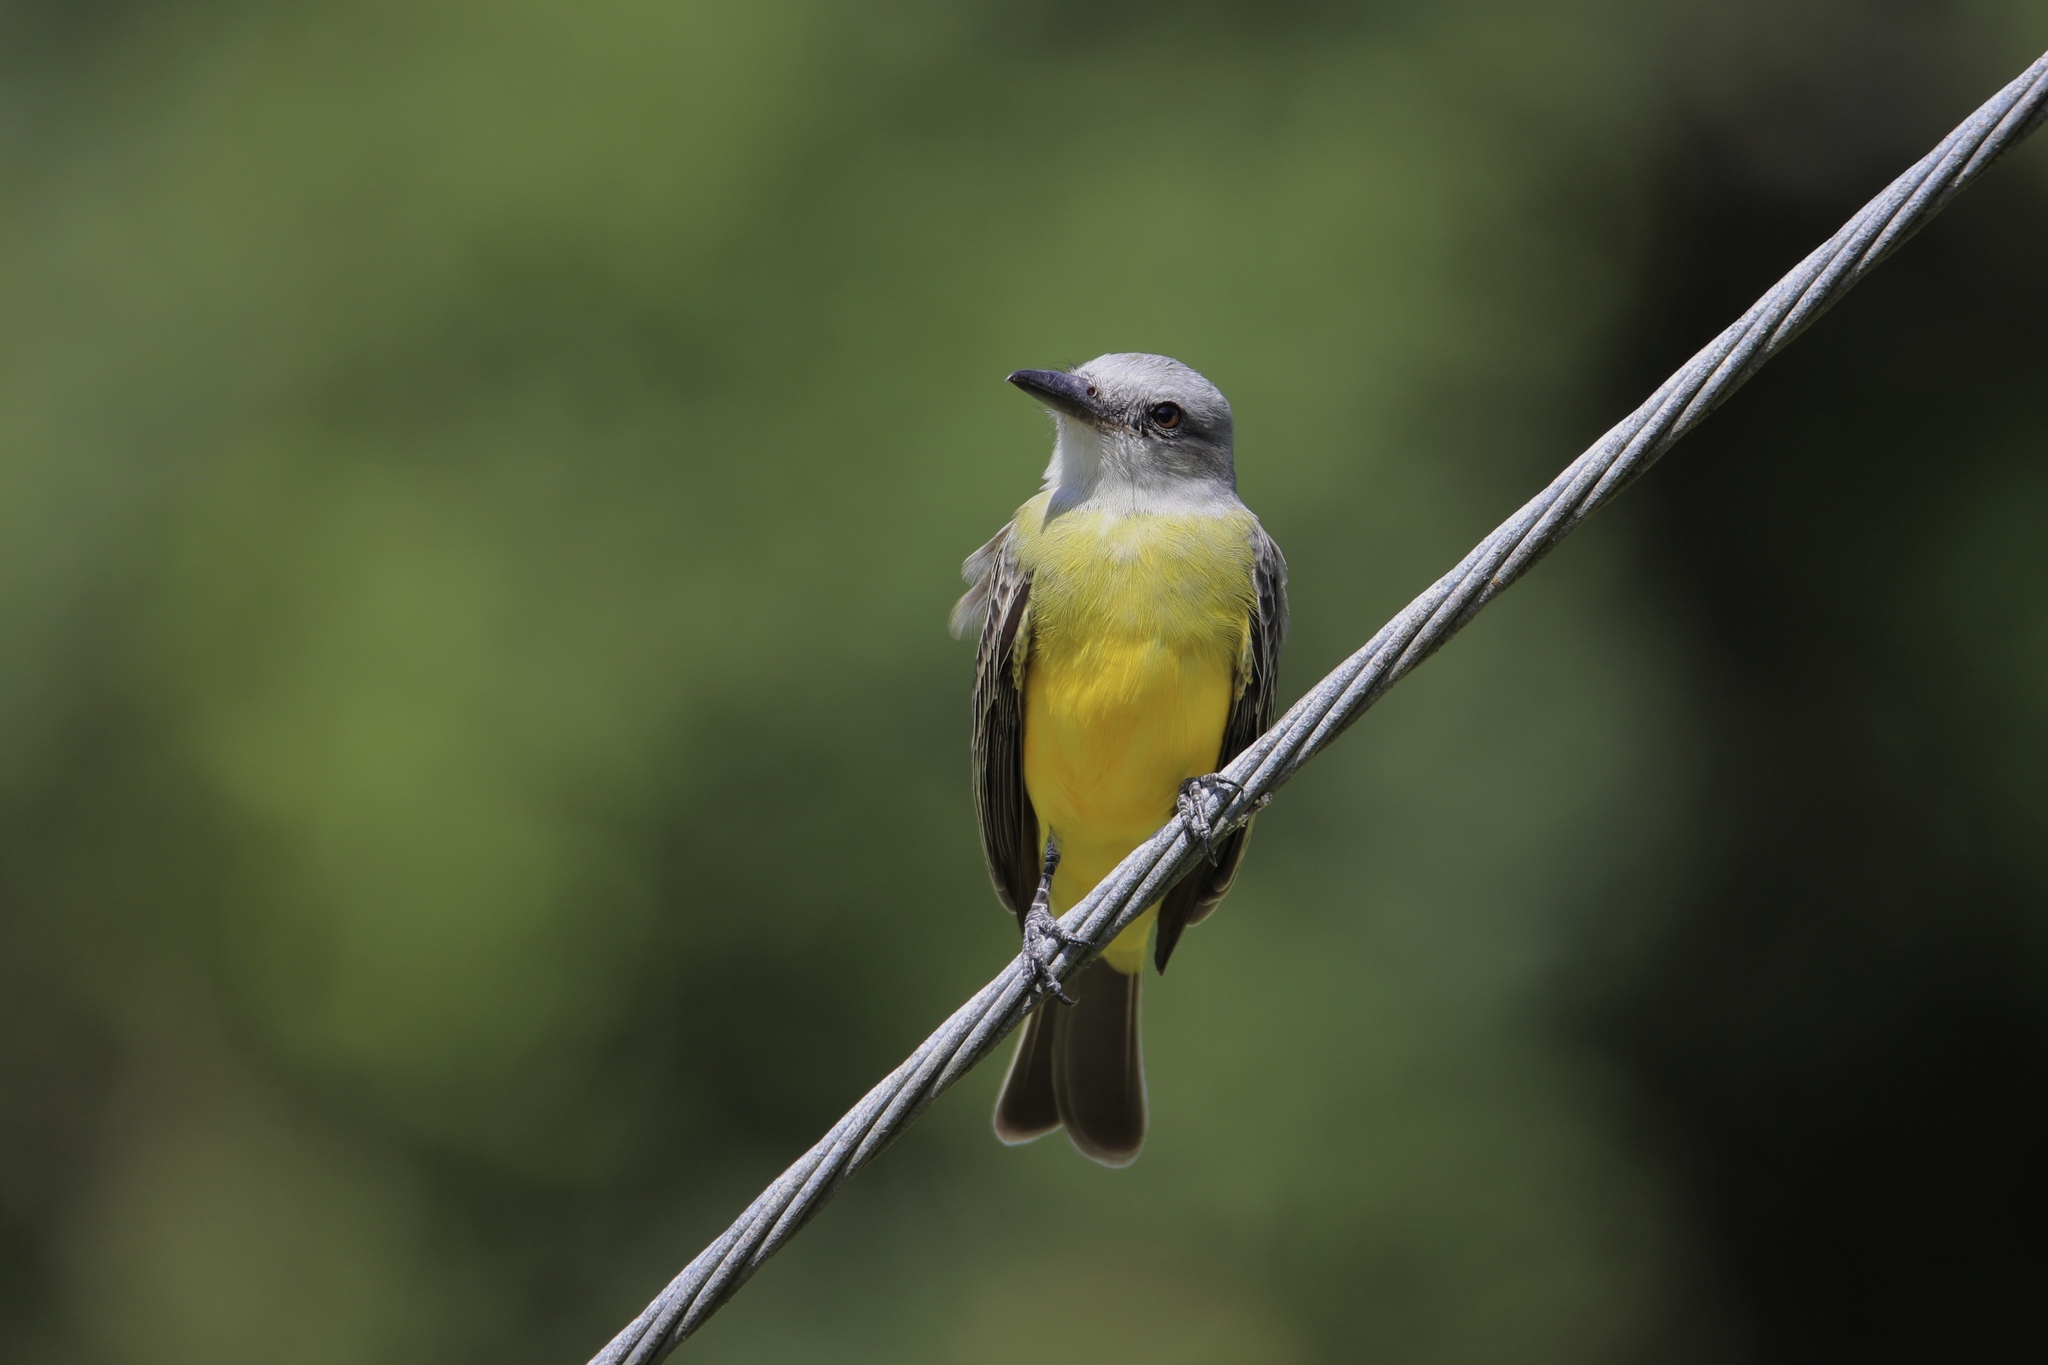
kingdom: Animalia
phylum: Chordata
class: Aves
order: Passeriformes
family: Tyrannidae
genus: Tyrannus
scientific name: Tyrannus melancholicus
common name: Tropical kingbird
